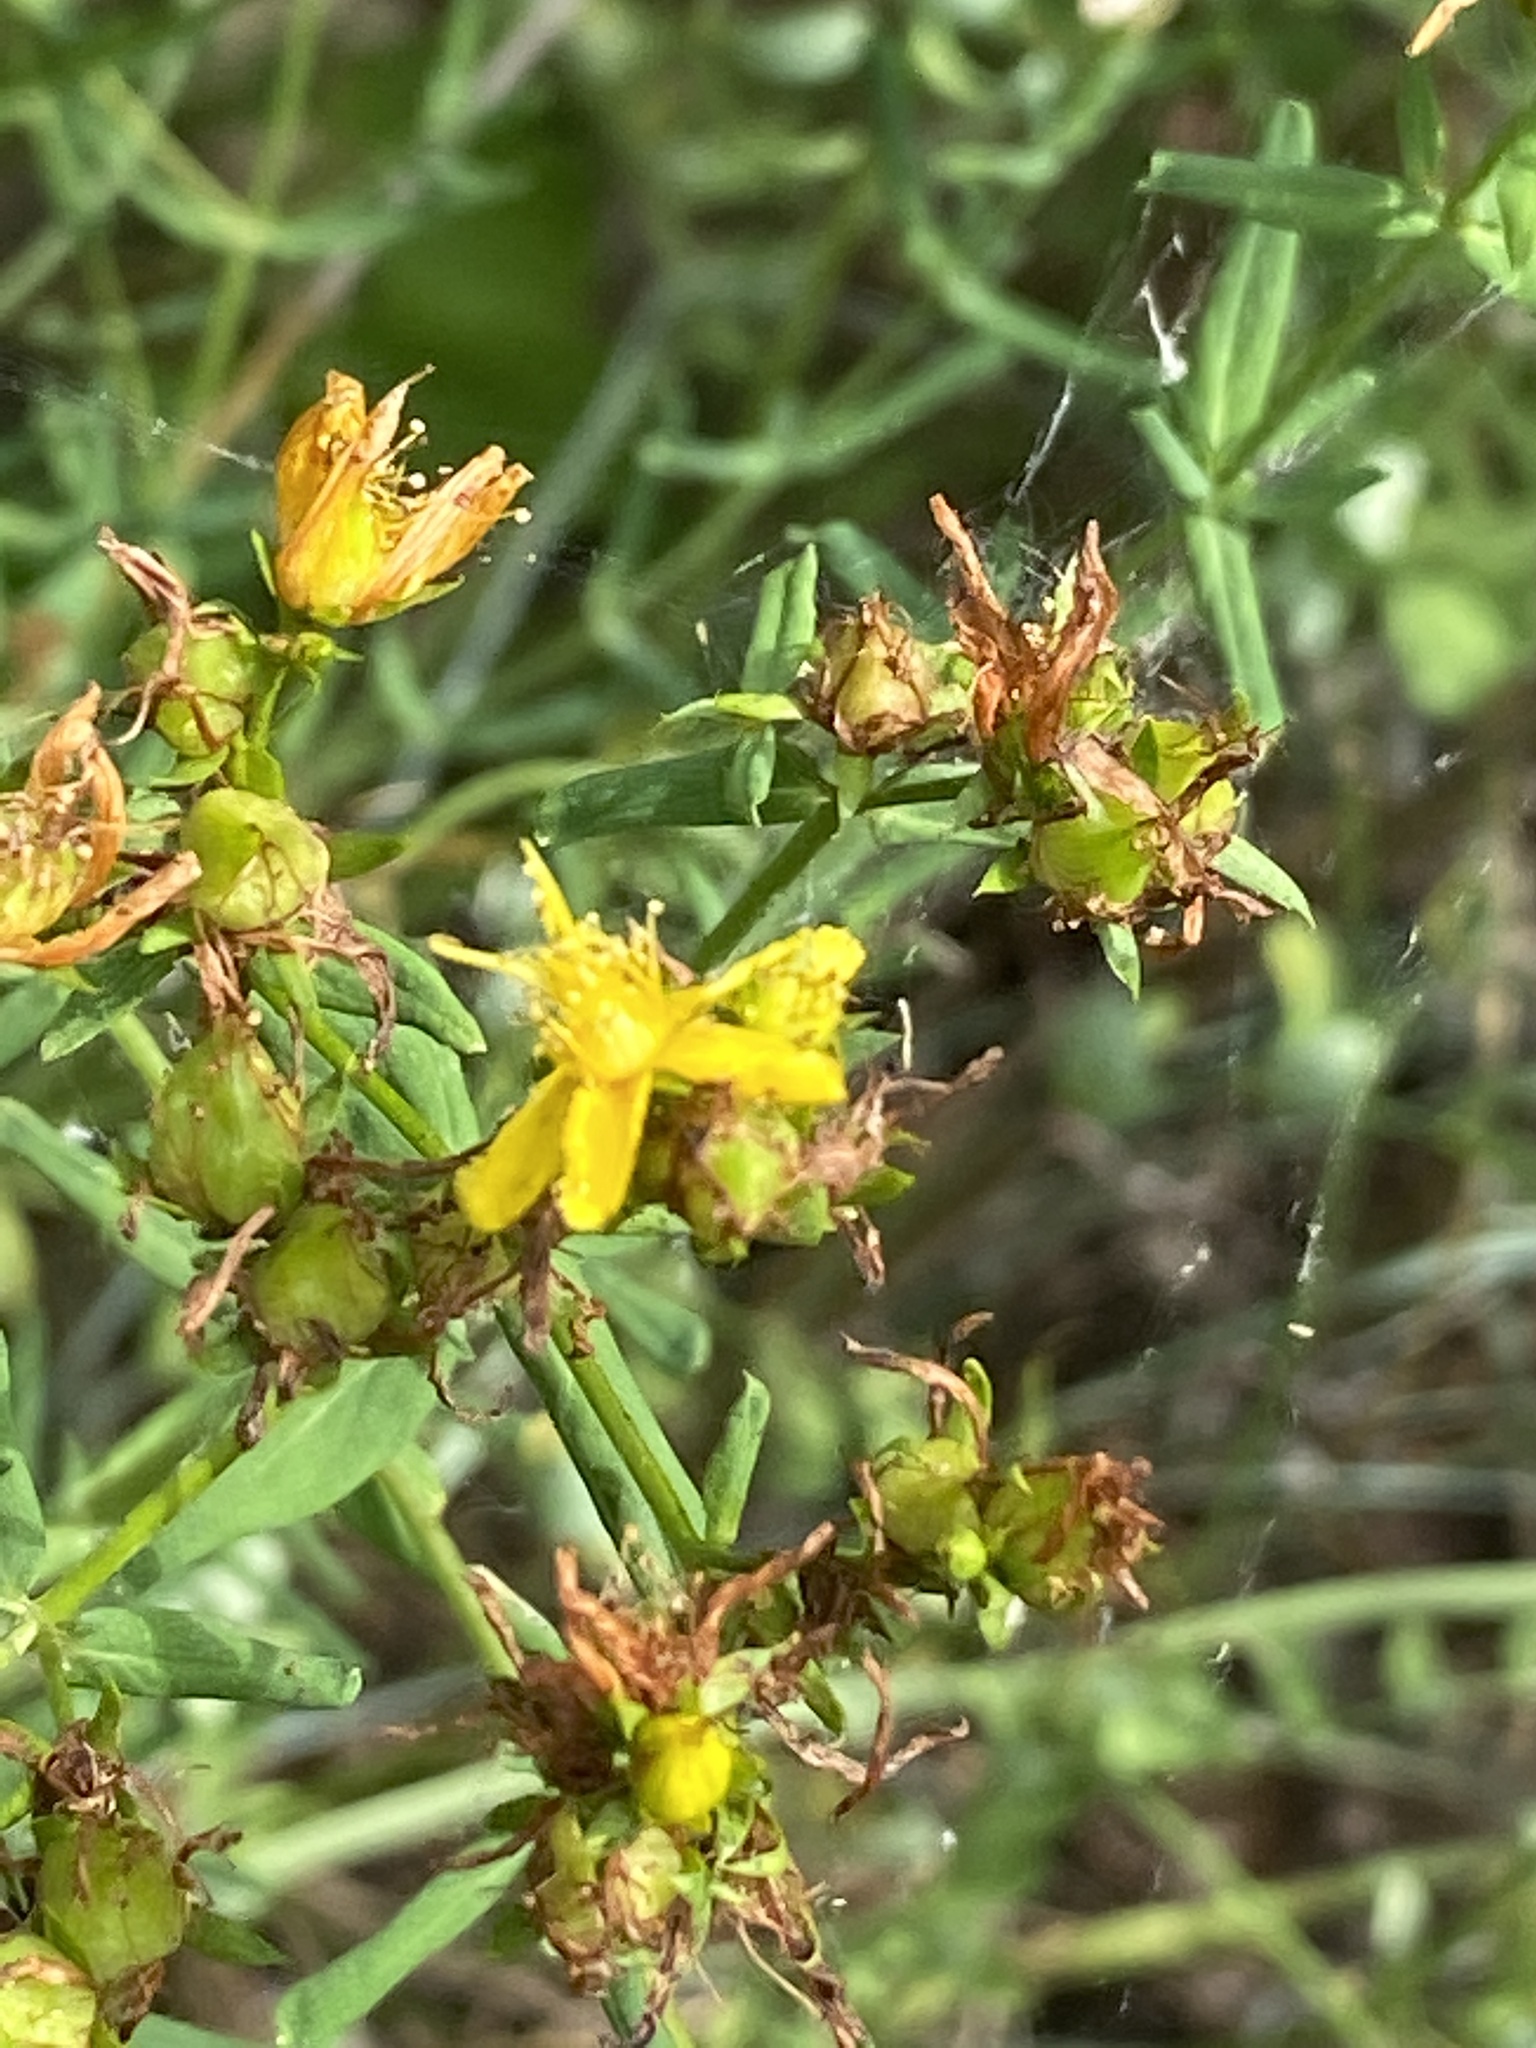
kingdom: Plantae
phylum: Tracheophyta
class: Magnoliopsida
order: Malpighiales
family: Hypericaceae
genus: Hypericum
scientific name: Hypericum perforatum
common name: Common st. johnswort
